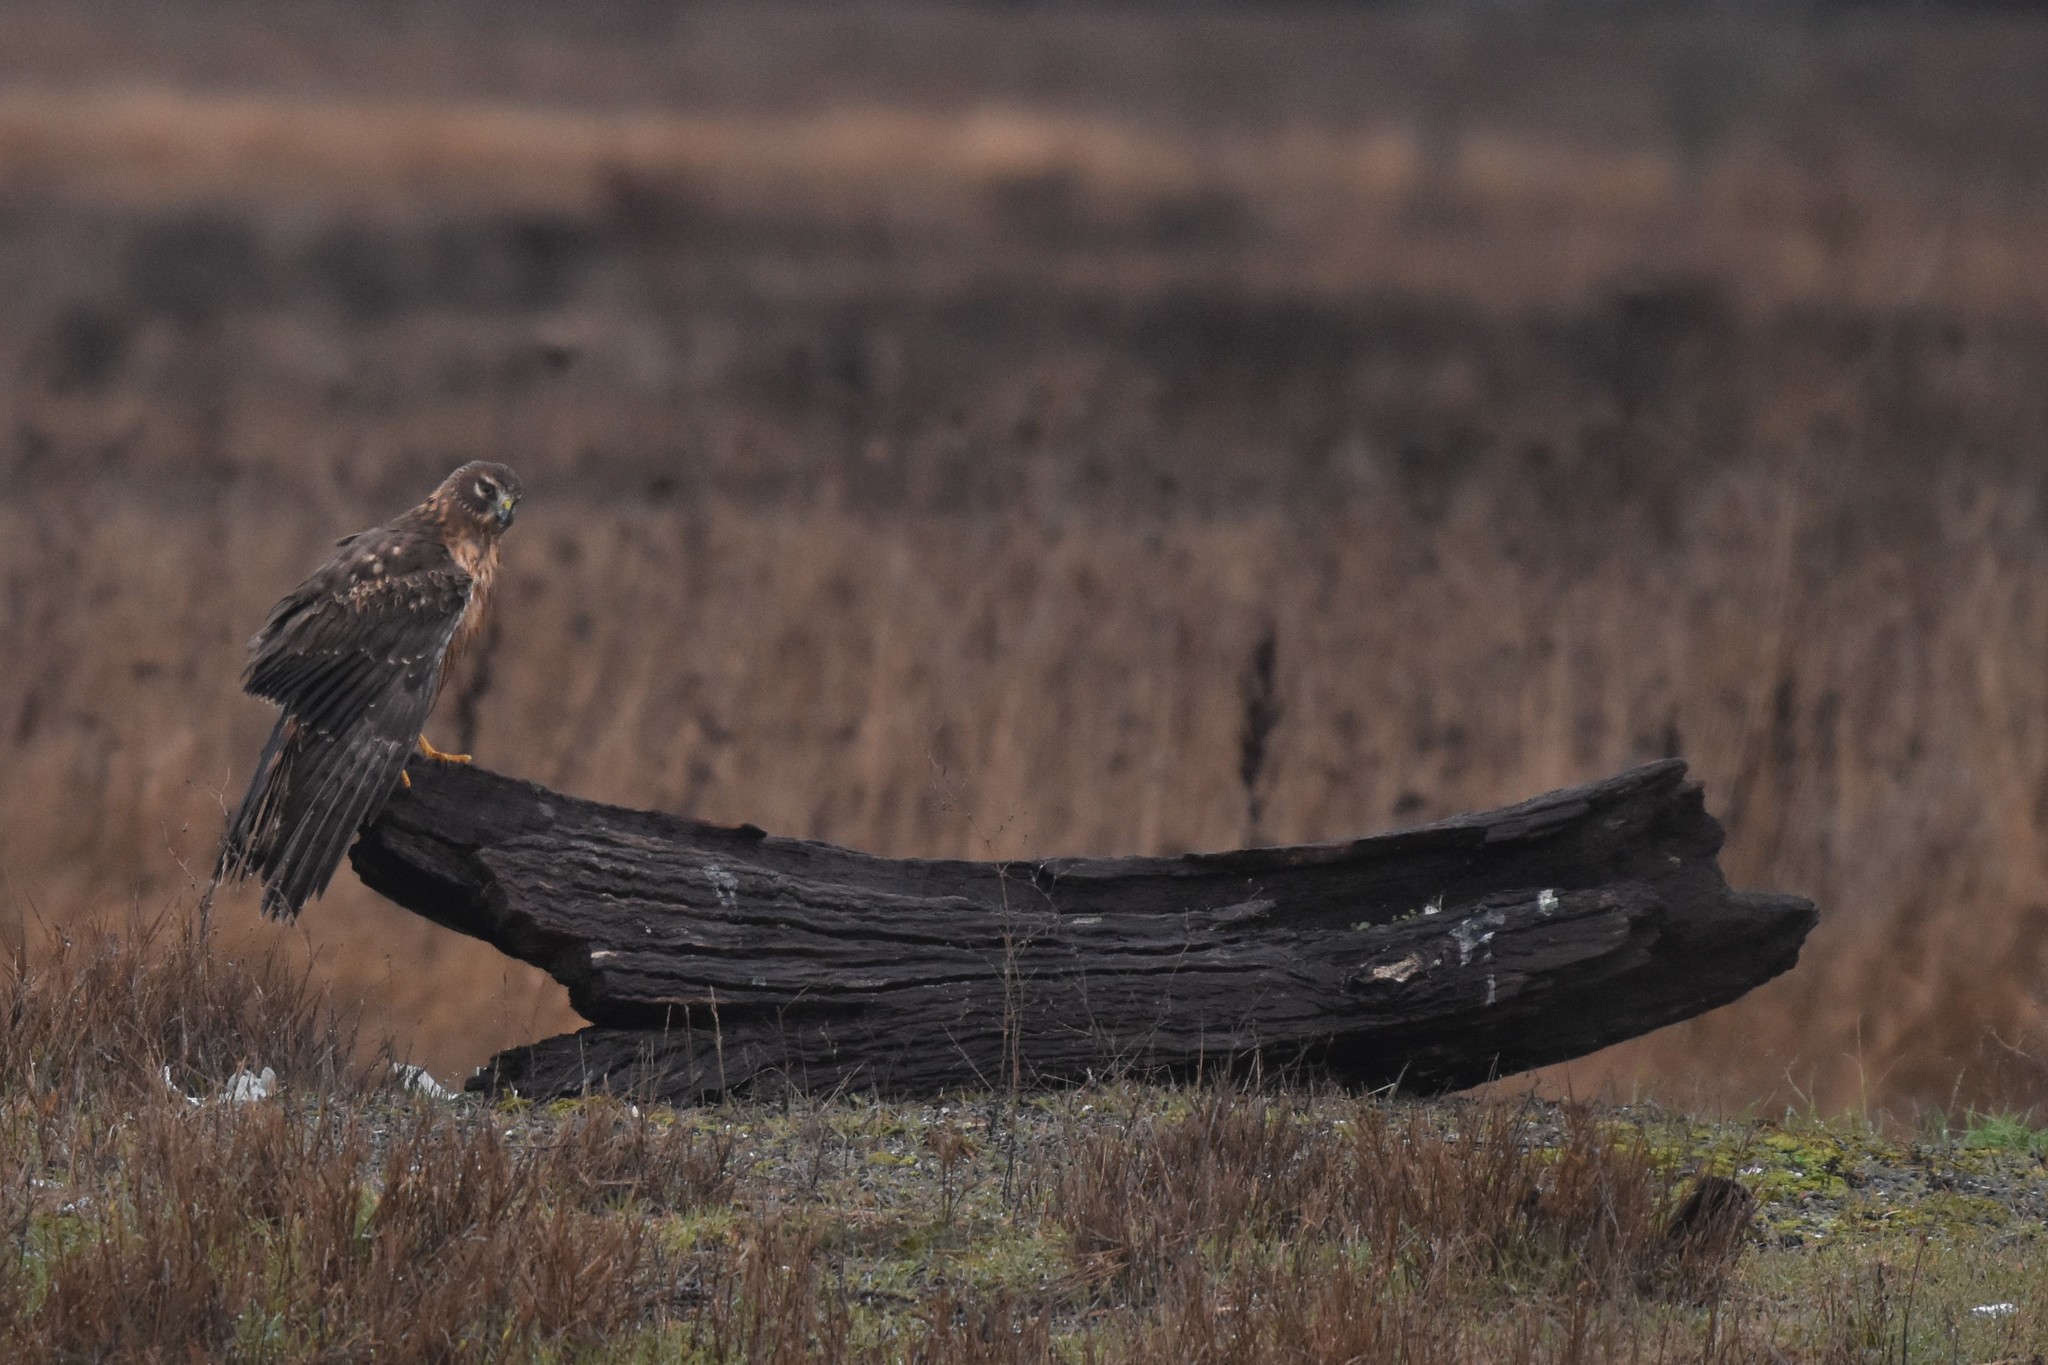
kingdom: Animalia
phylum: Chordata
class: Aves
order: Accipitriformes
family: Accipitridae
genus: Circus
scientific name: Circus cyaneus
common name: Hen harrier
